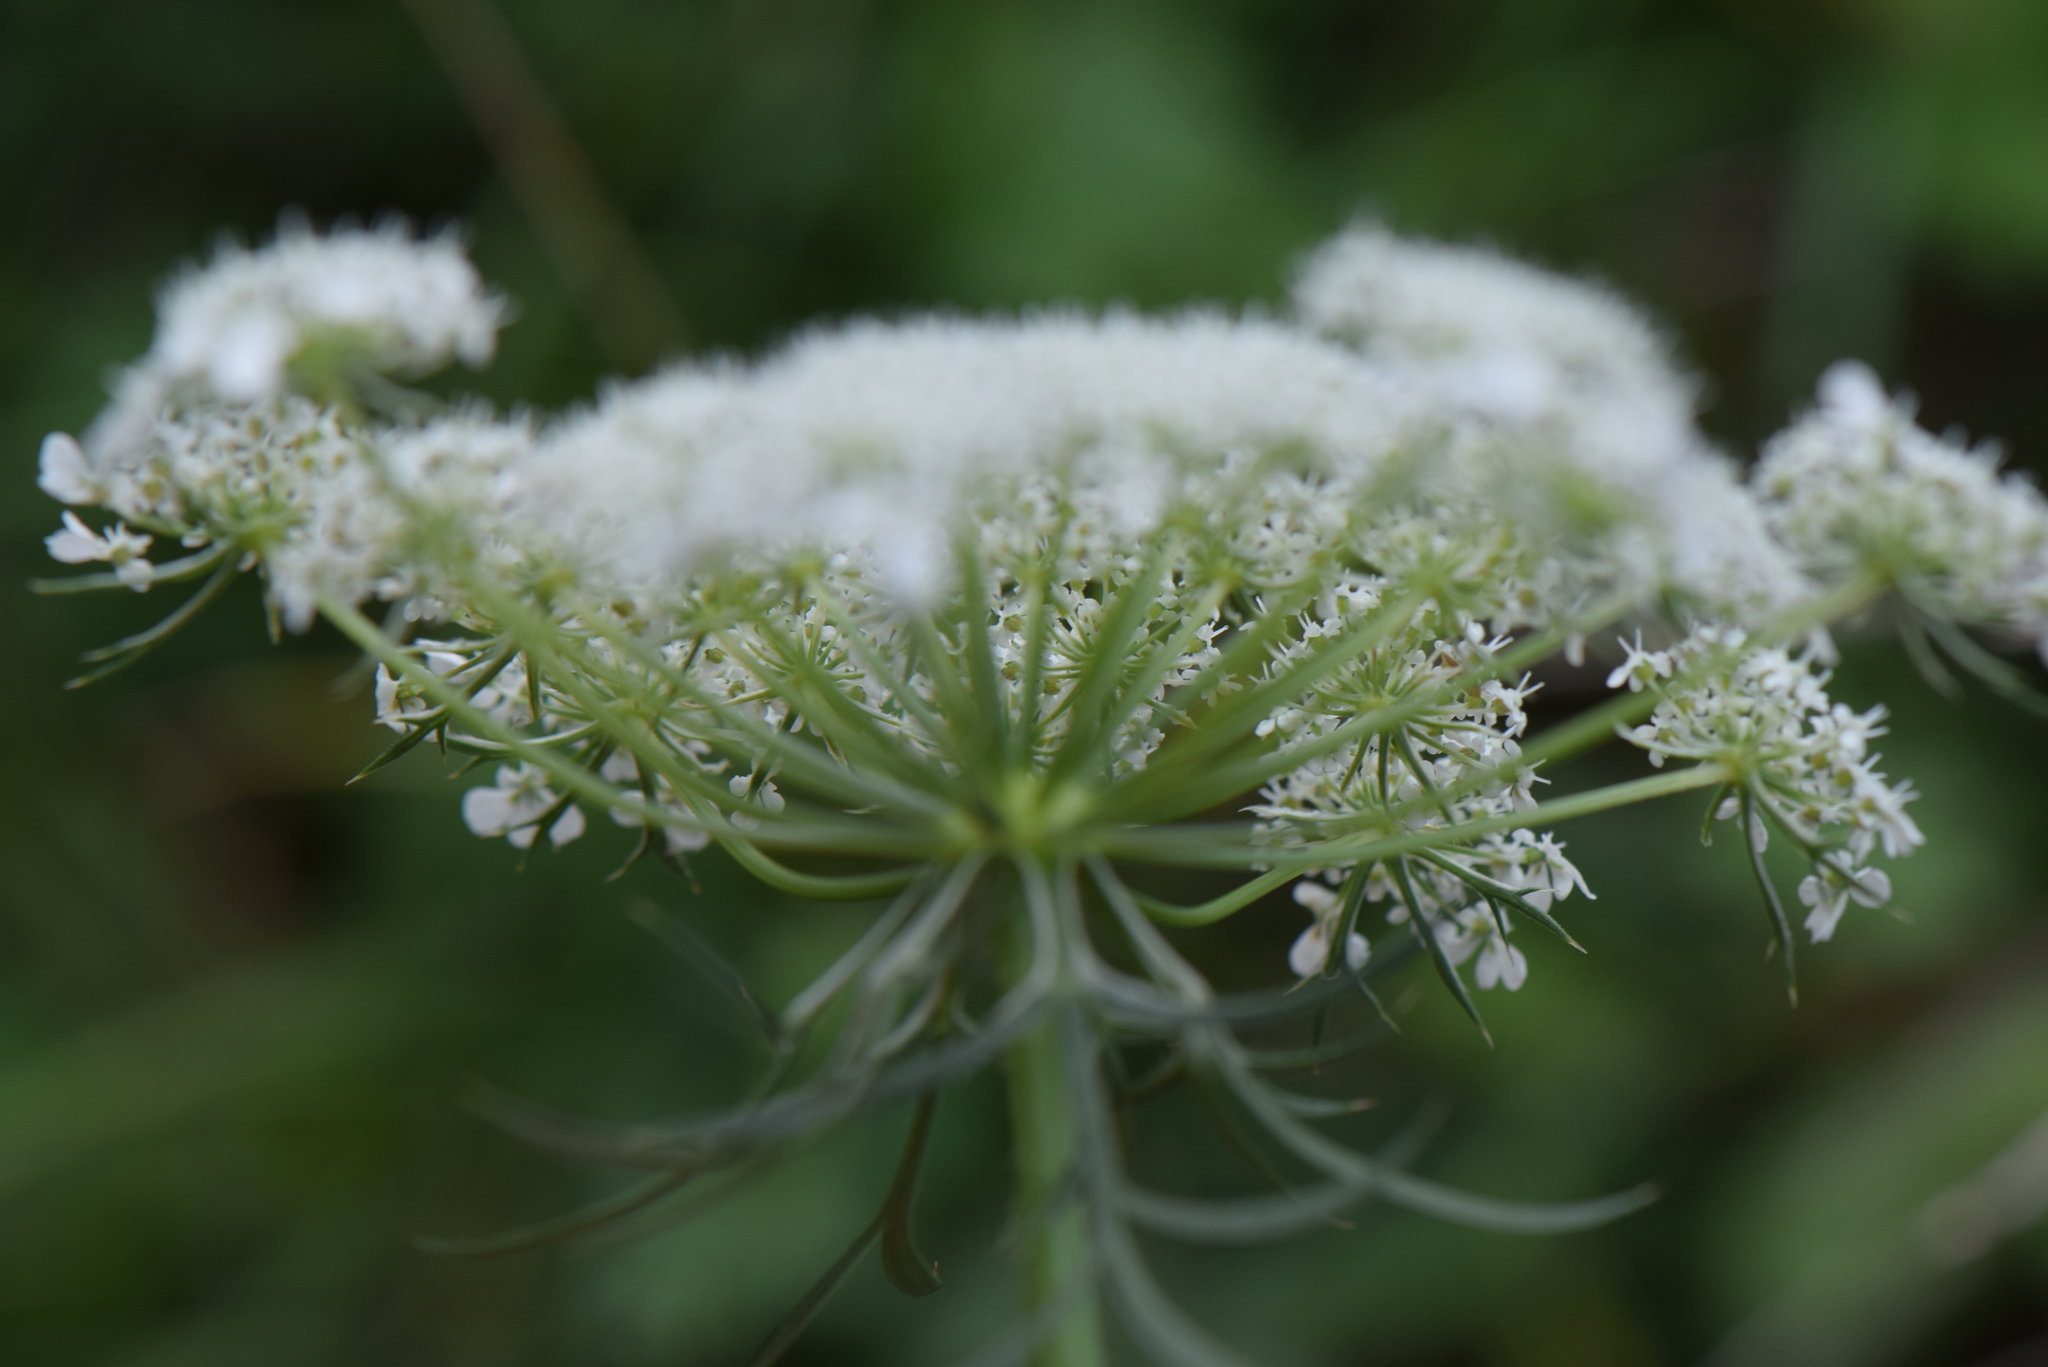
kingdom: Plantae
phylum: Tracheophyta
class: Magnoliopsida
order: Apiales
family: Apiaceae
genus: Daucus
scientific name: Daucus carota
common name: Wild carrot
